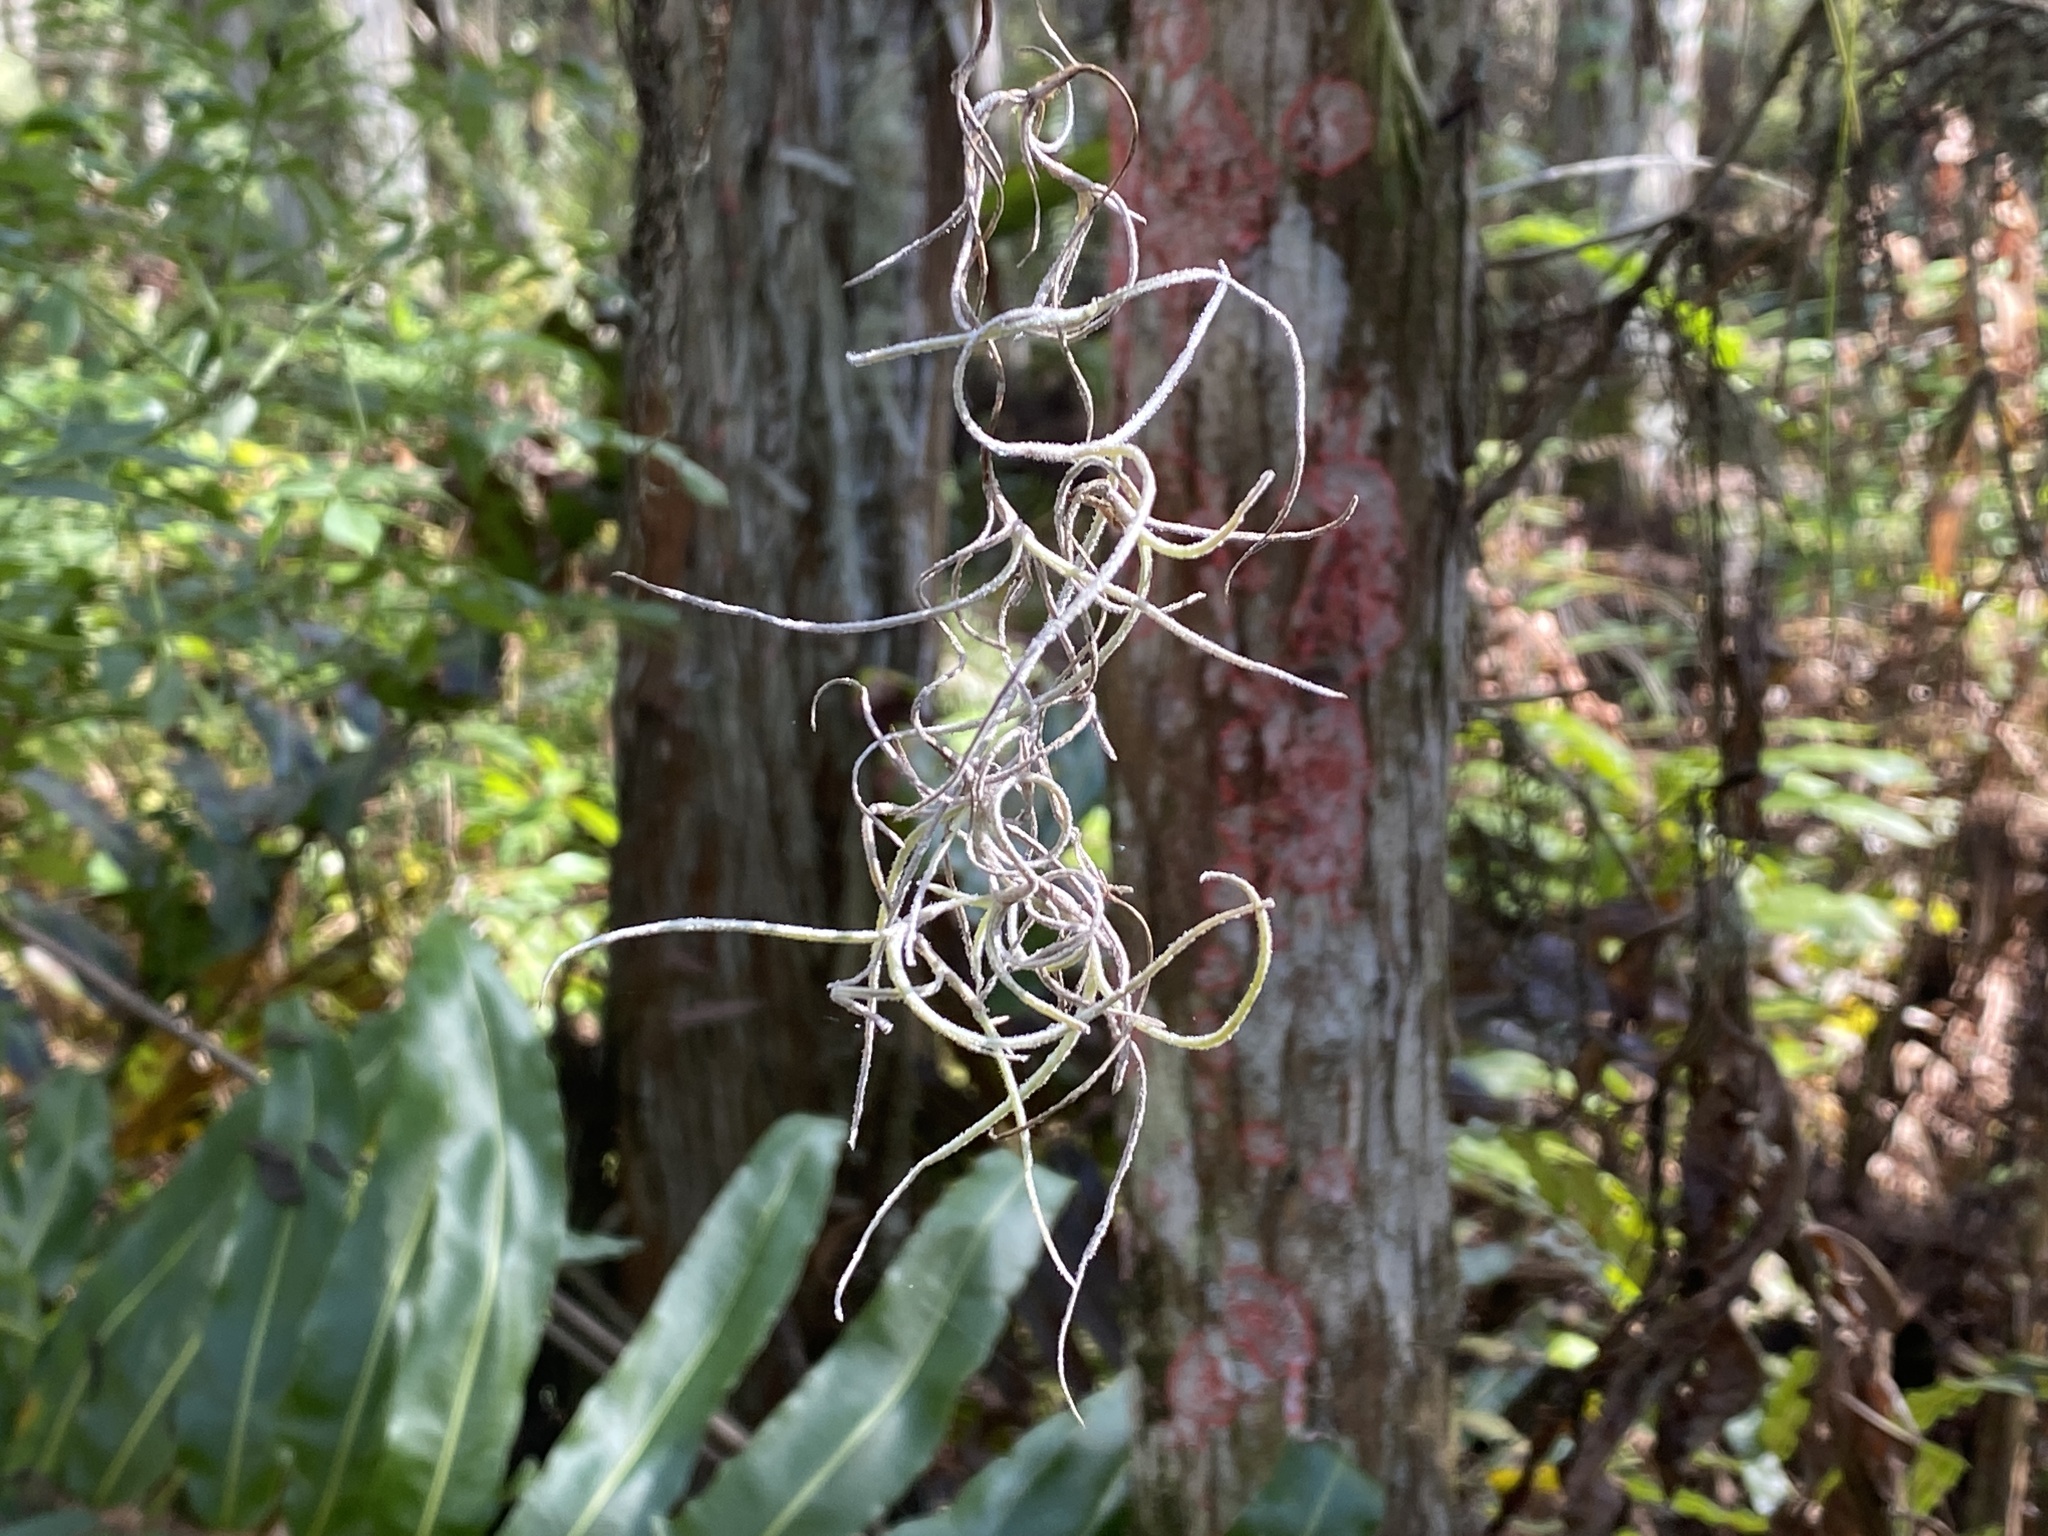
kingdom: Plantae
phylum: Tracheophyta
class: Liliopsida
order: Poales
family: Bromeliaceae
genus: Tillandsia
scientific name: Tillandsia usneoides
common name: Spanish moss
